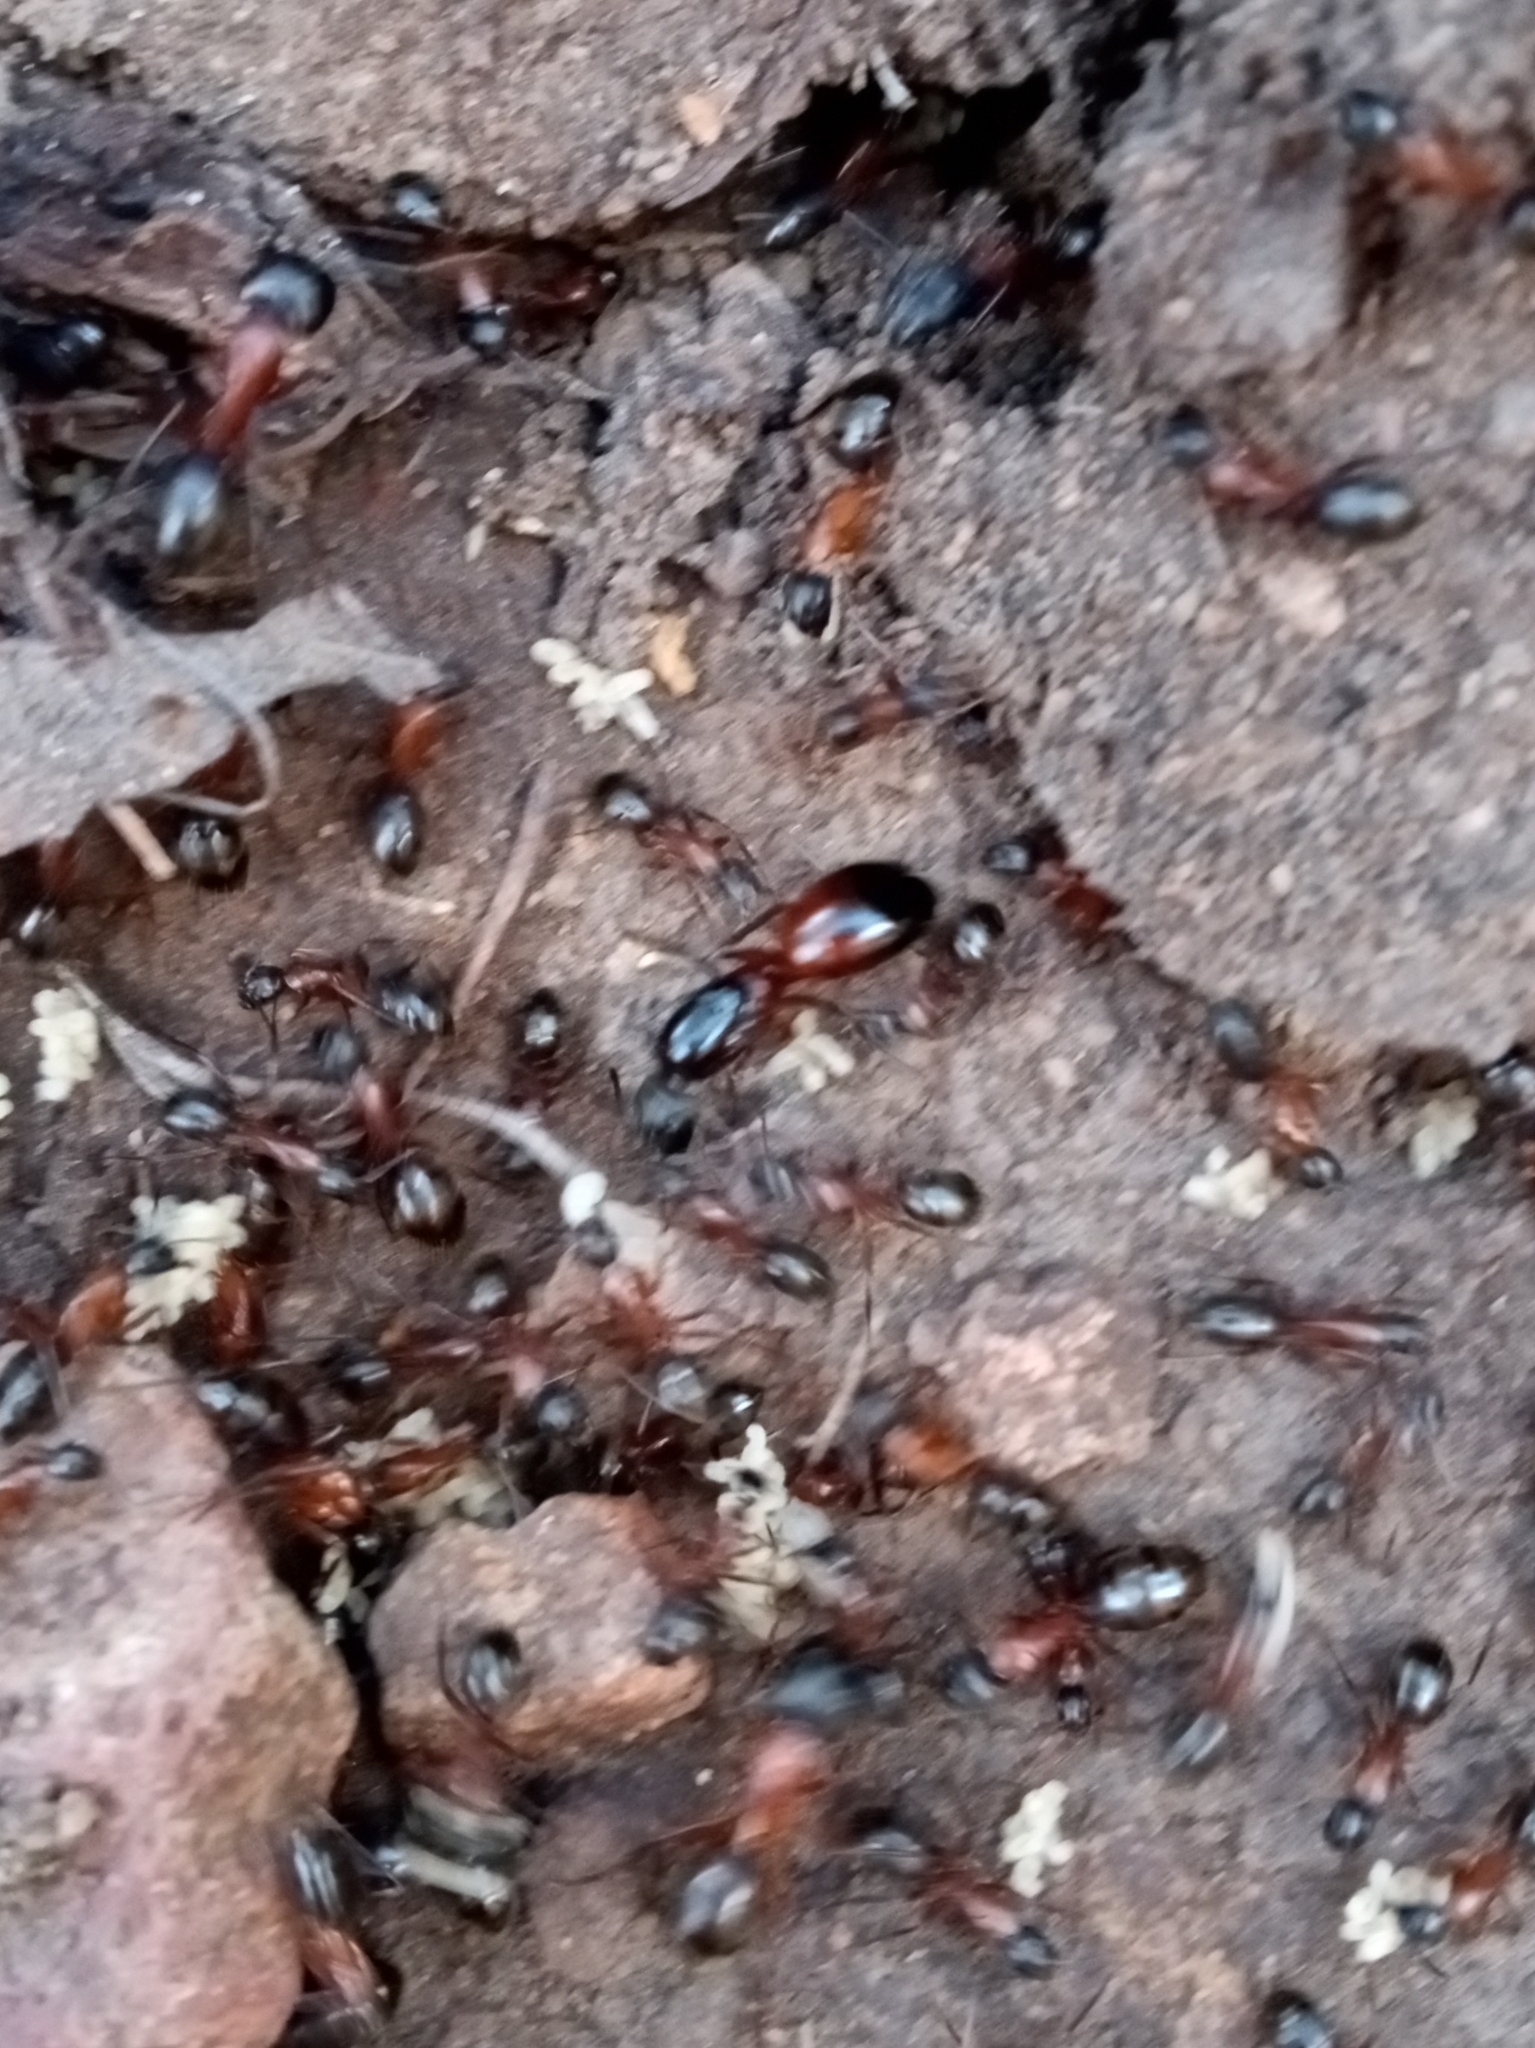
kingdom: Animalia
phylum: Arthropoda
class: Insecta
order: Hymenoptera
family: Formicidae
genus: Camponotus
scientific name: Camponotus semitestaceus
